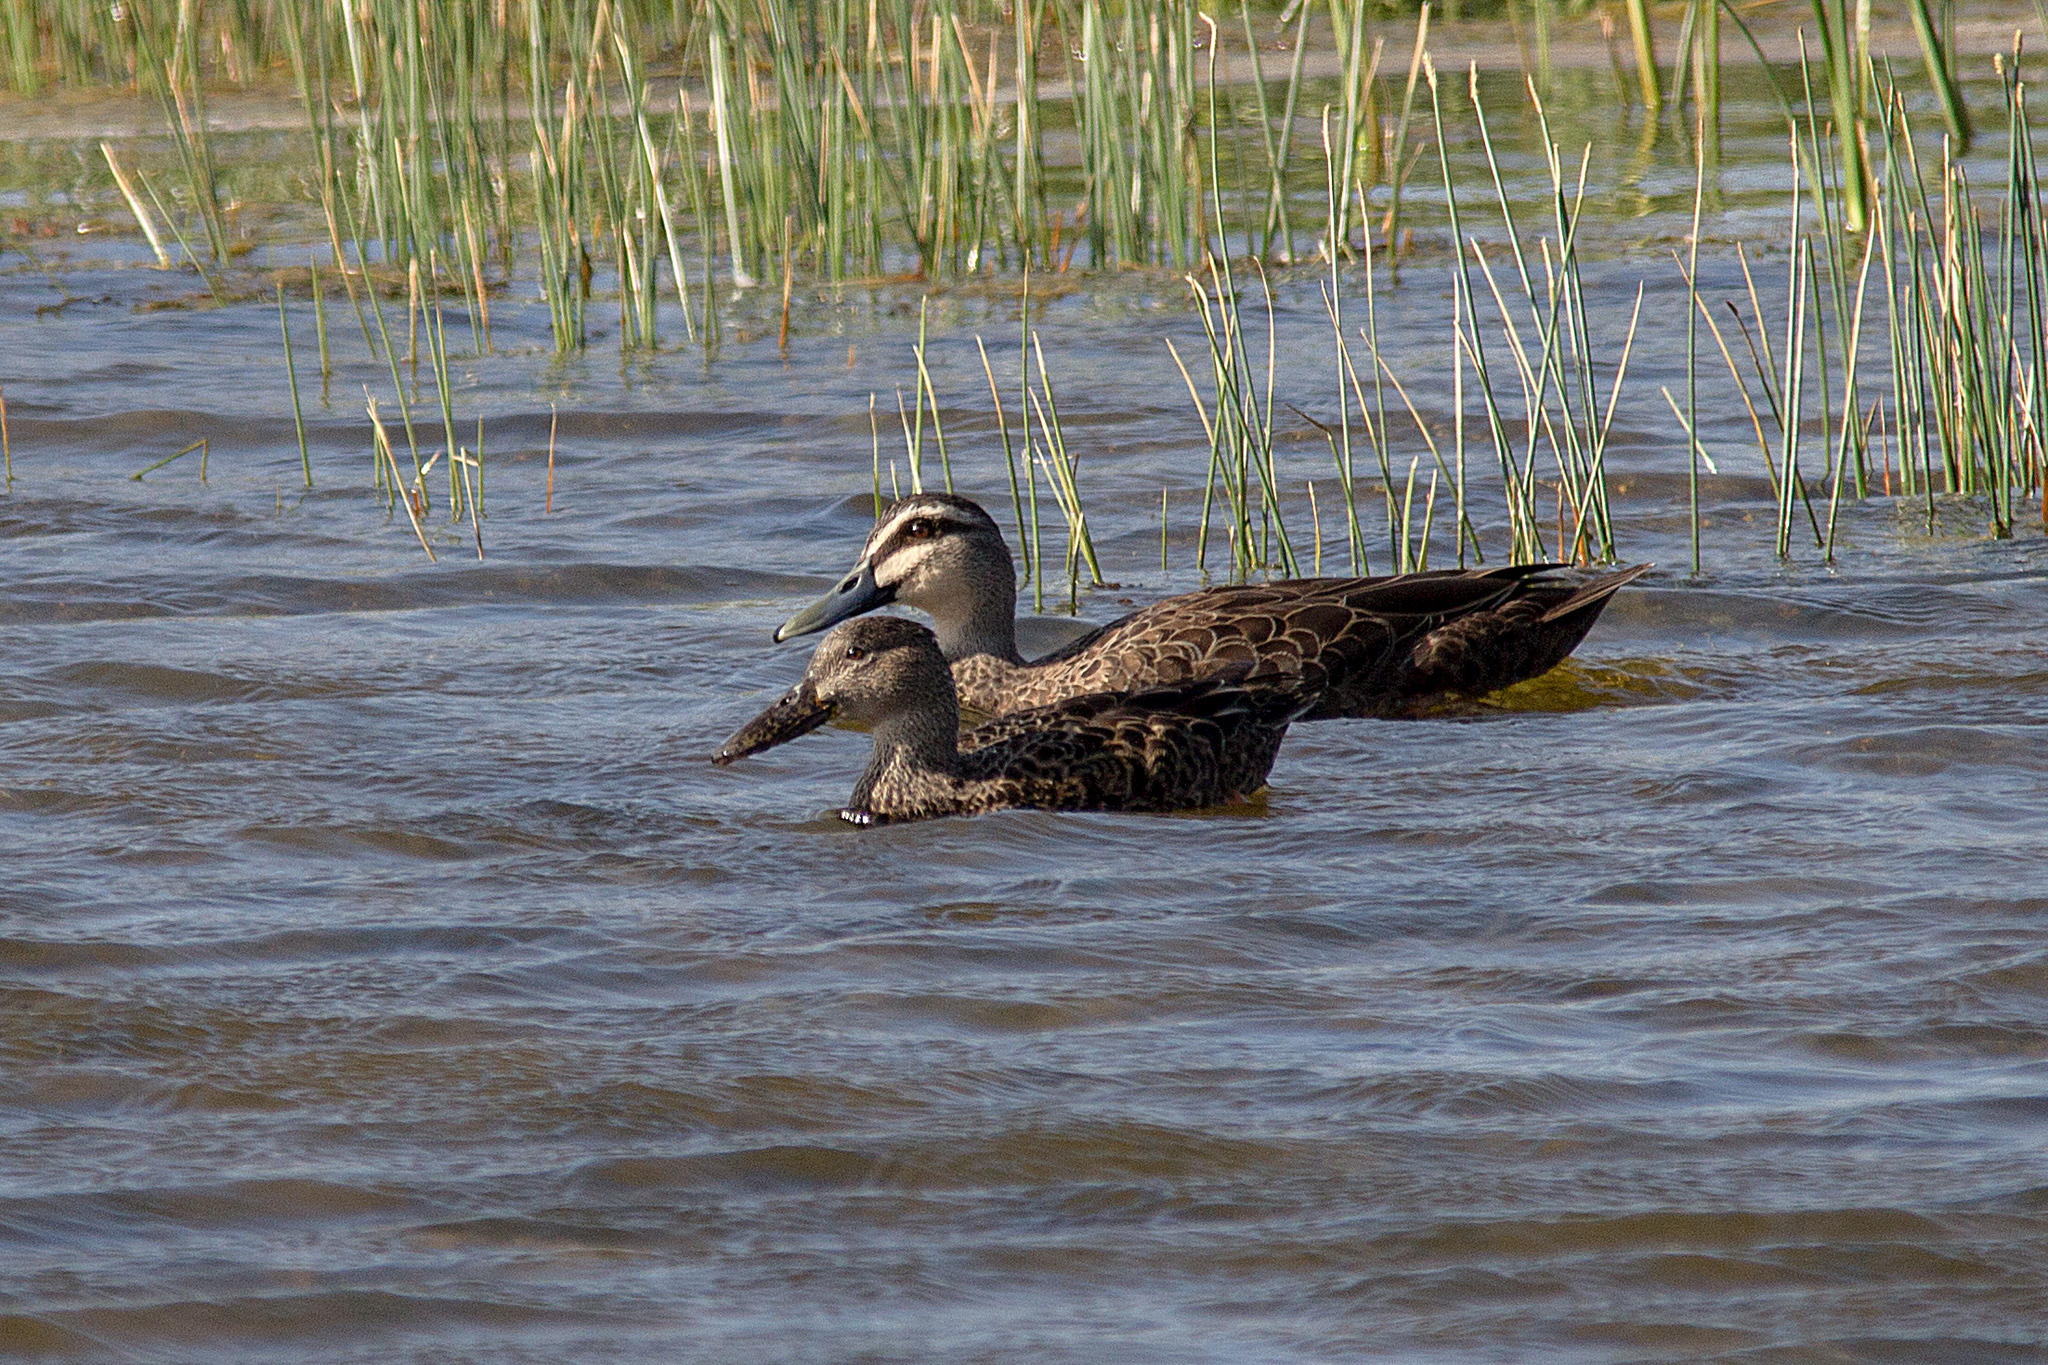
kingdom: Animalia
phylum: Chordata
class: Aves
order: Anseriformes
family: Anatidae
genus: Spatula
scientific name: Spatula rhynchotis
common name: Australian shoveler
